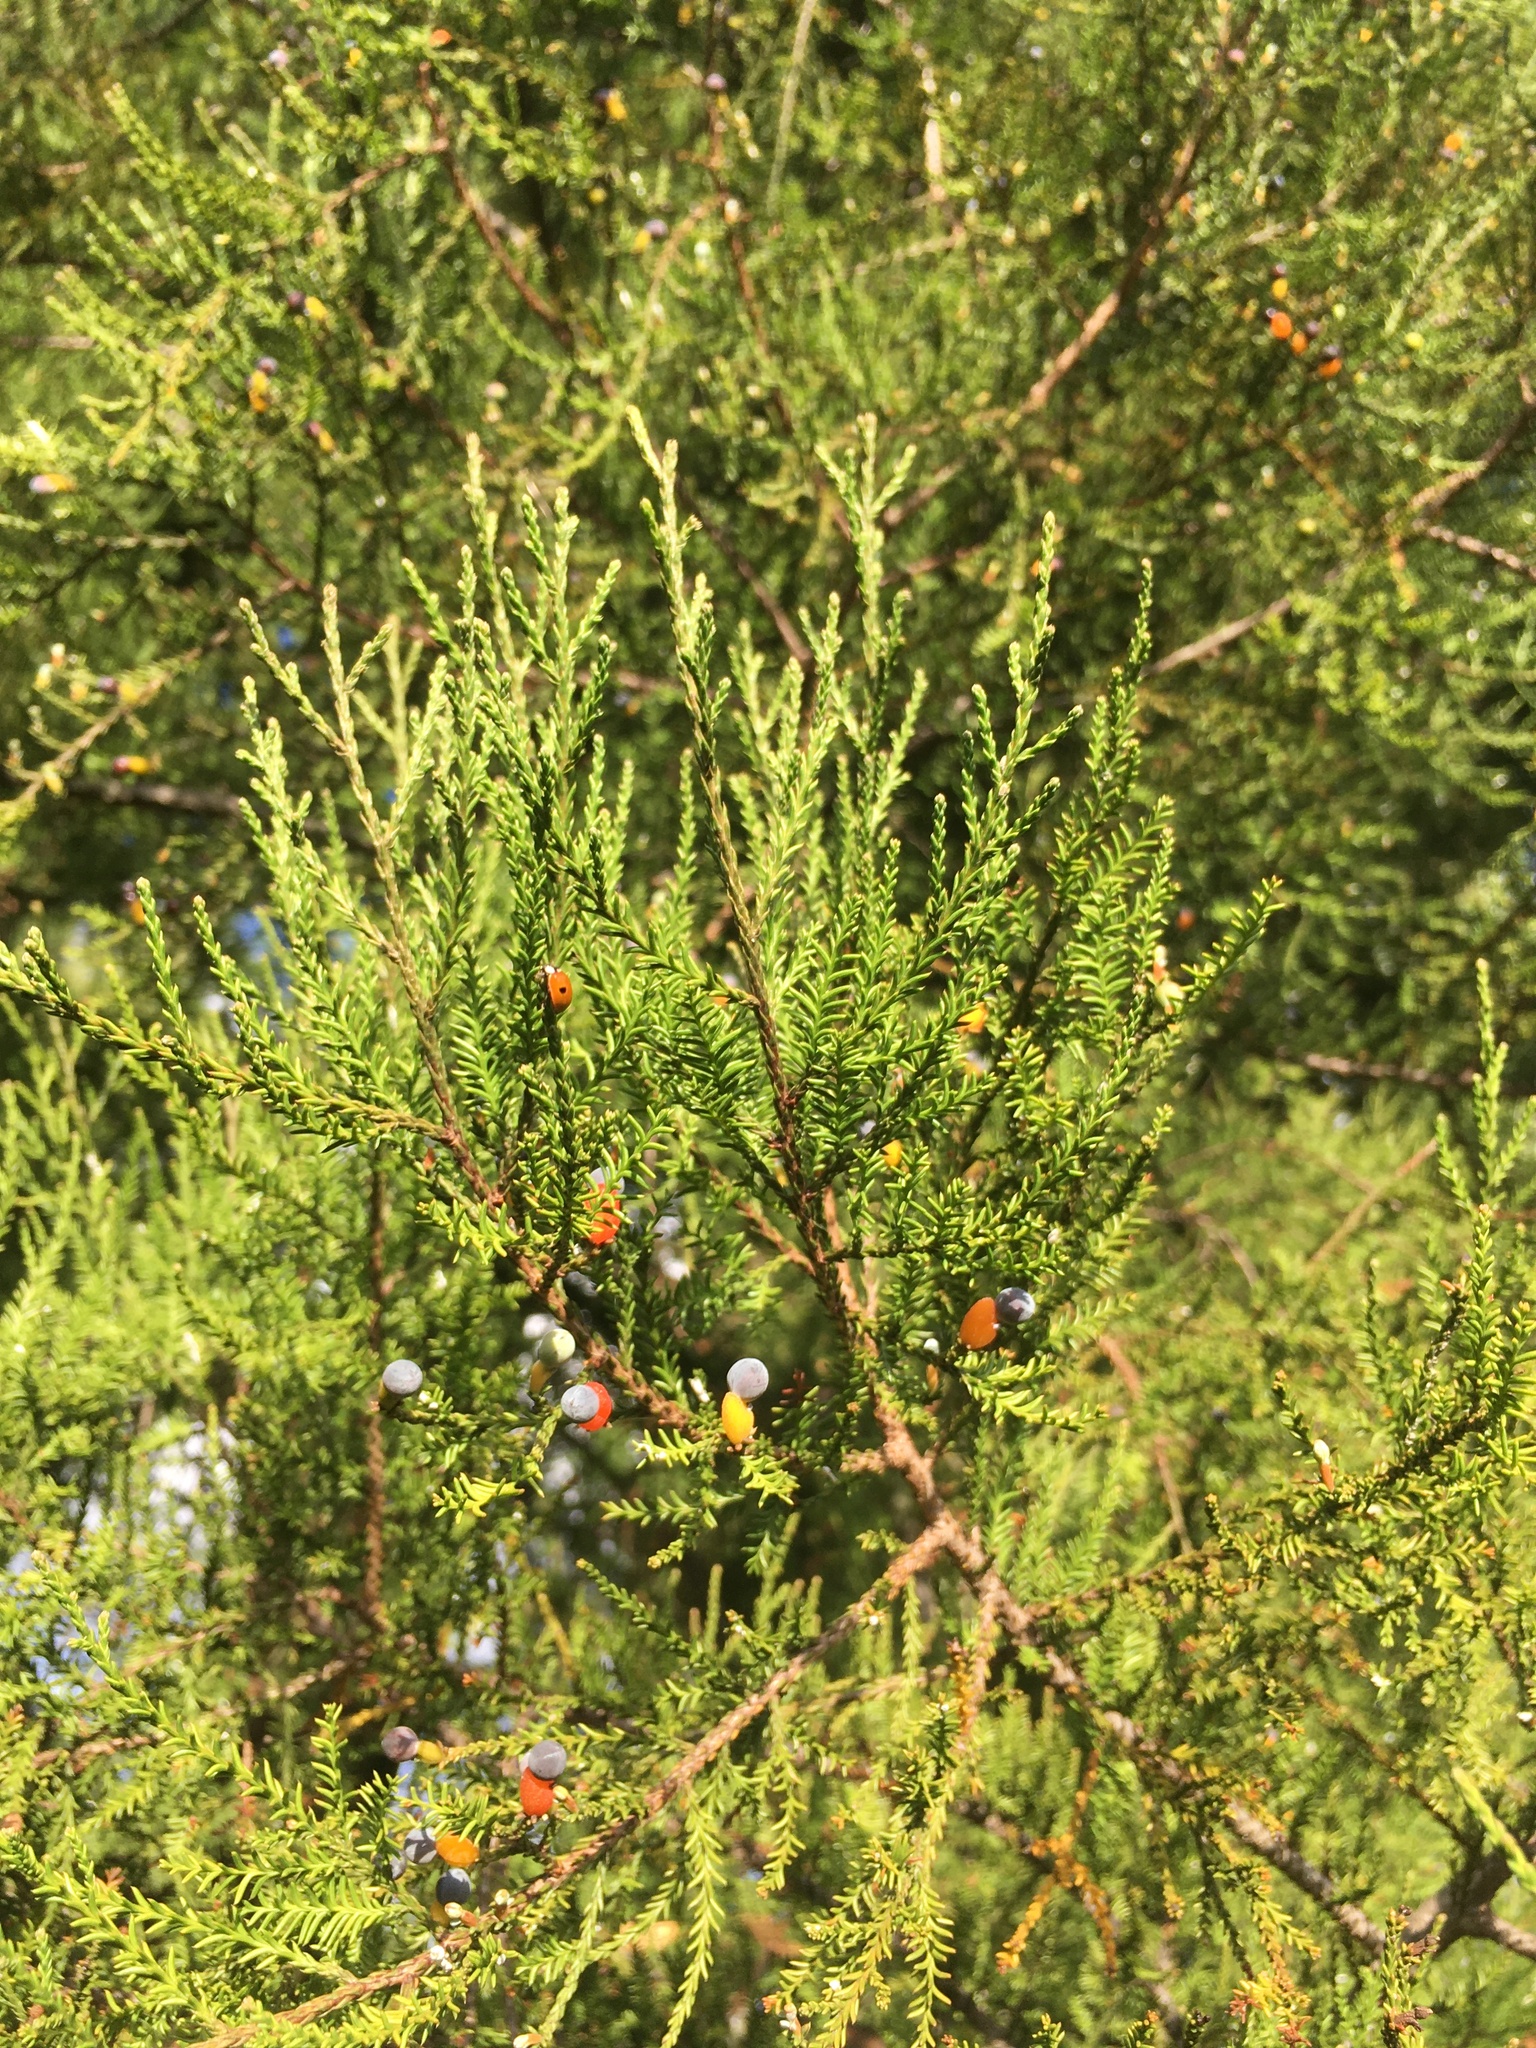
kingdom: Plantae
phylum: Tracheophyta
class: Pinopsida
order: Pinales
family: Podocarpaceae
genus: Dacrycarpus
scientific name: Dacrycarpus dacrydioides
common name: White pine
